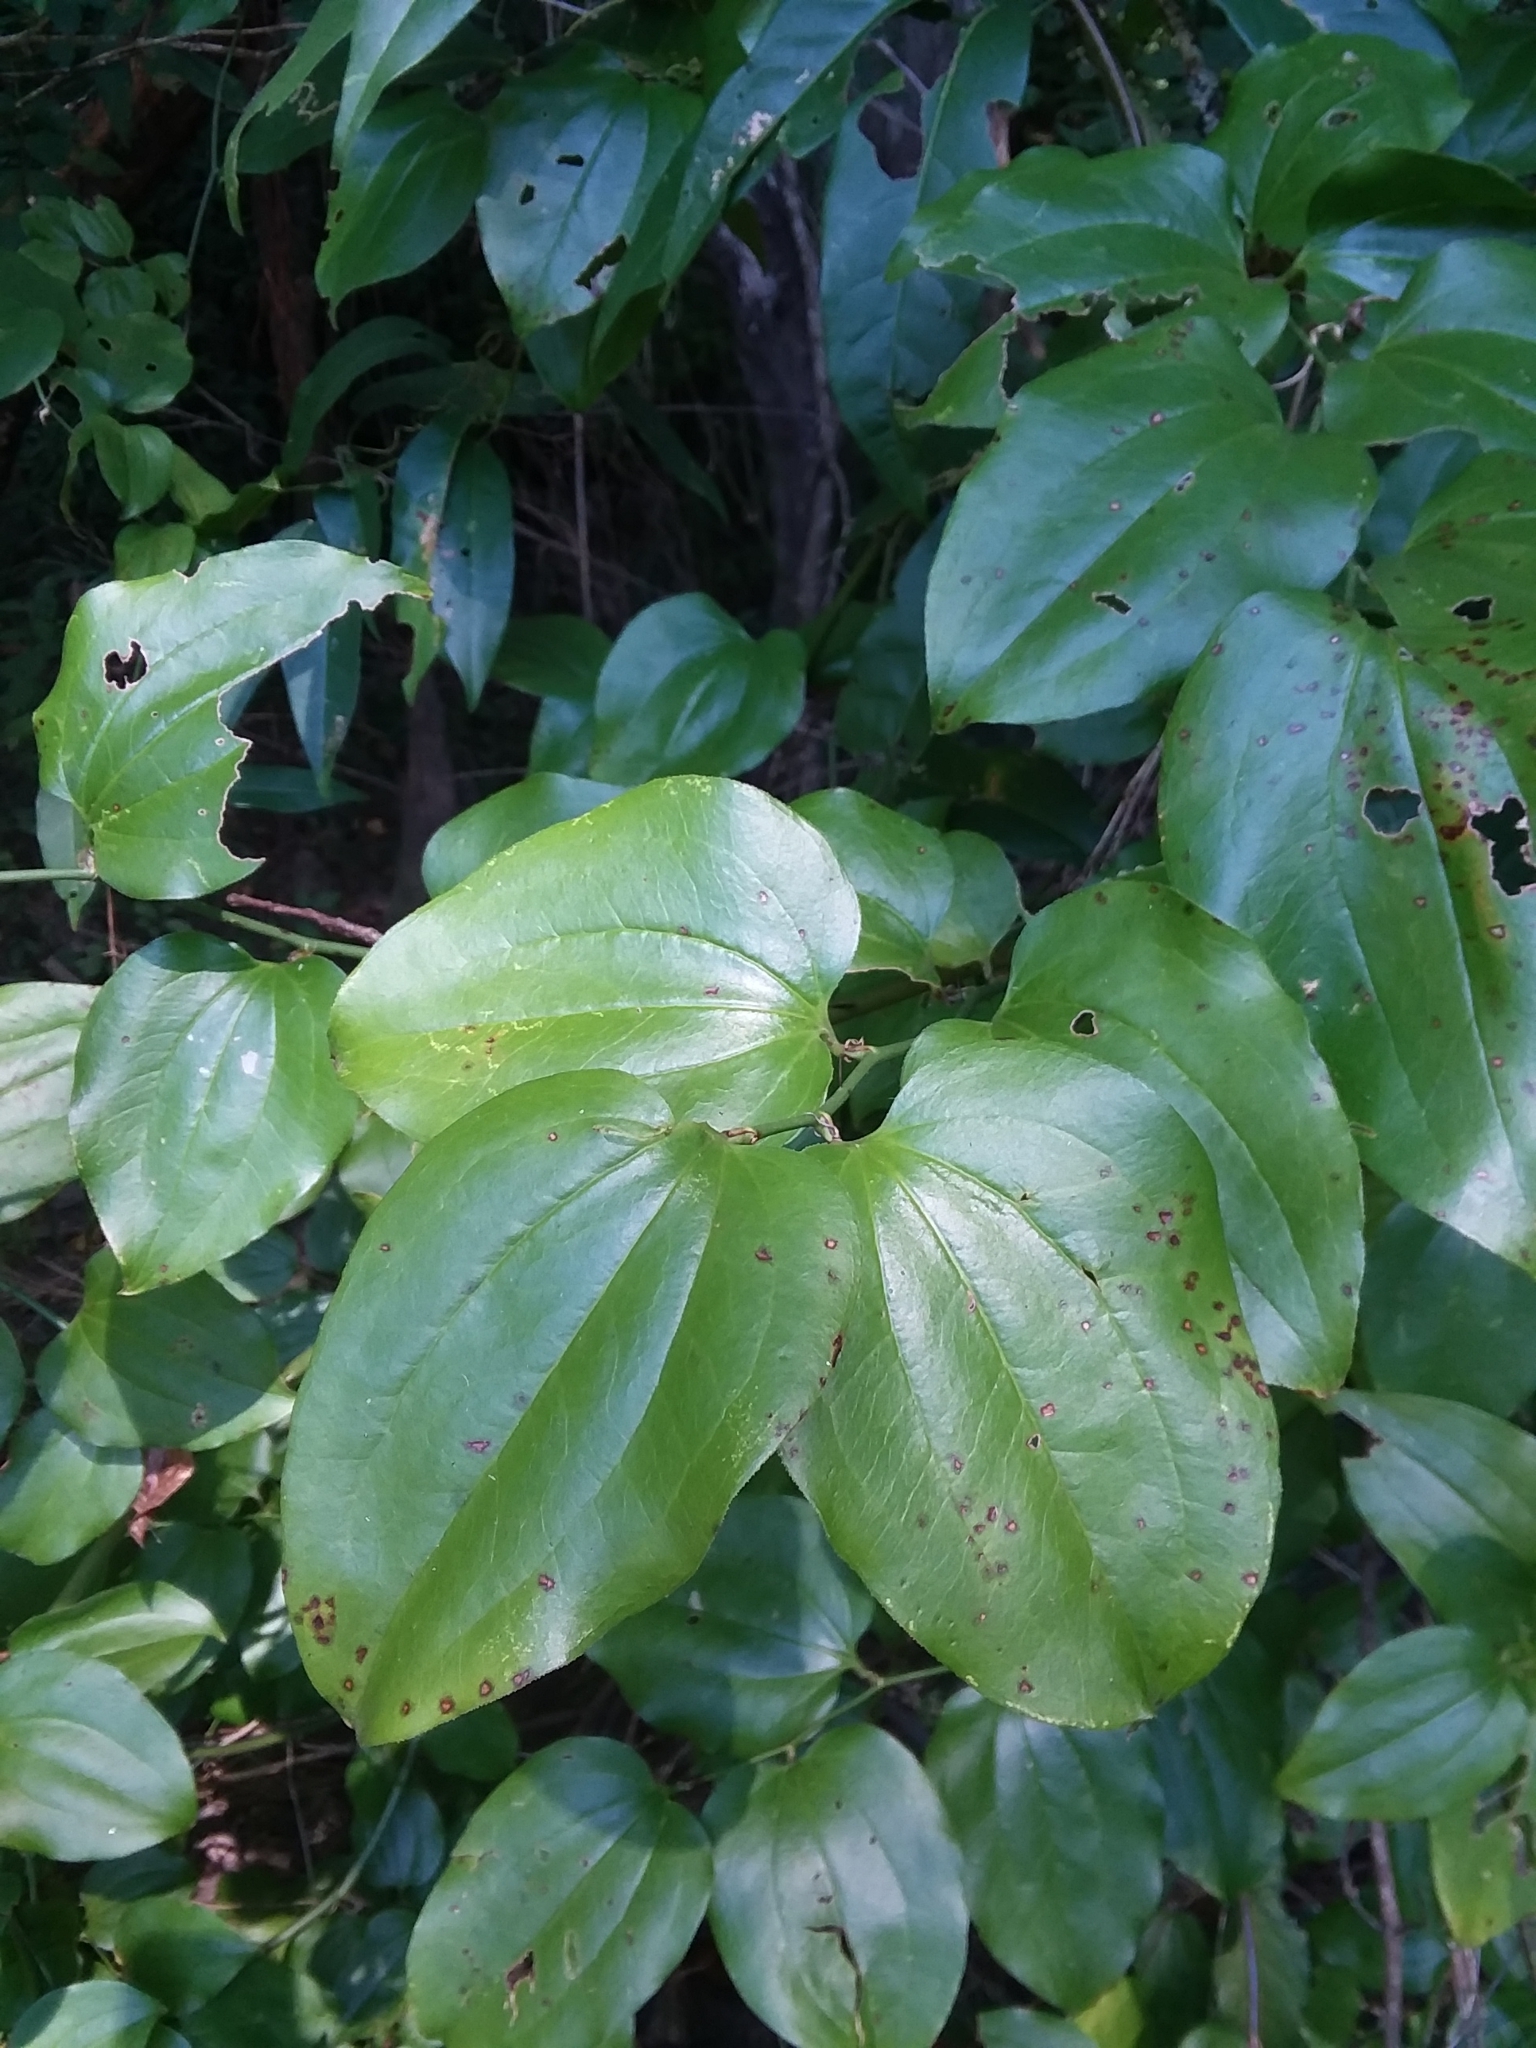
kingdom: Plantae
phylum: Tracheophyta
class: Liliopsida
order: Liliales
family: Smilacaceae
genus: Smilax
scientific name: Smilax tamnoides
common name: Hellfetter
